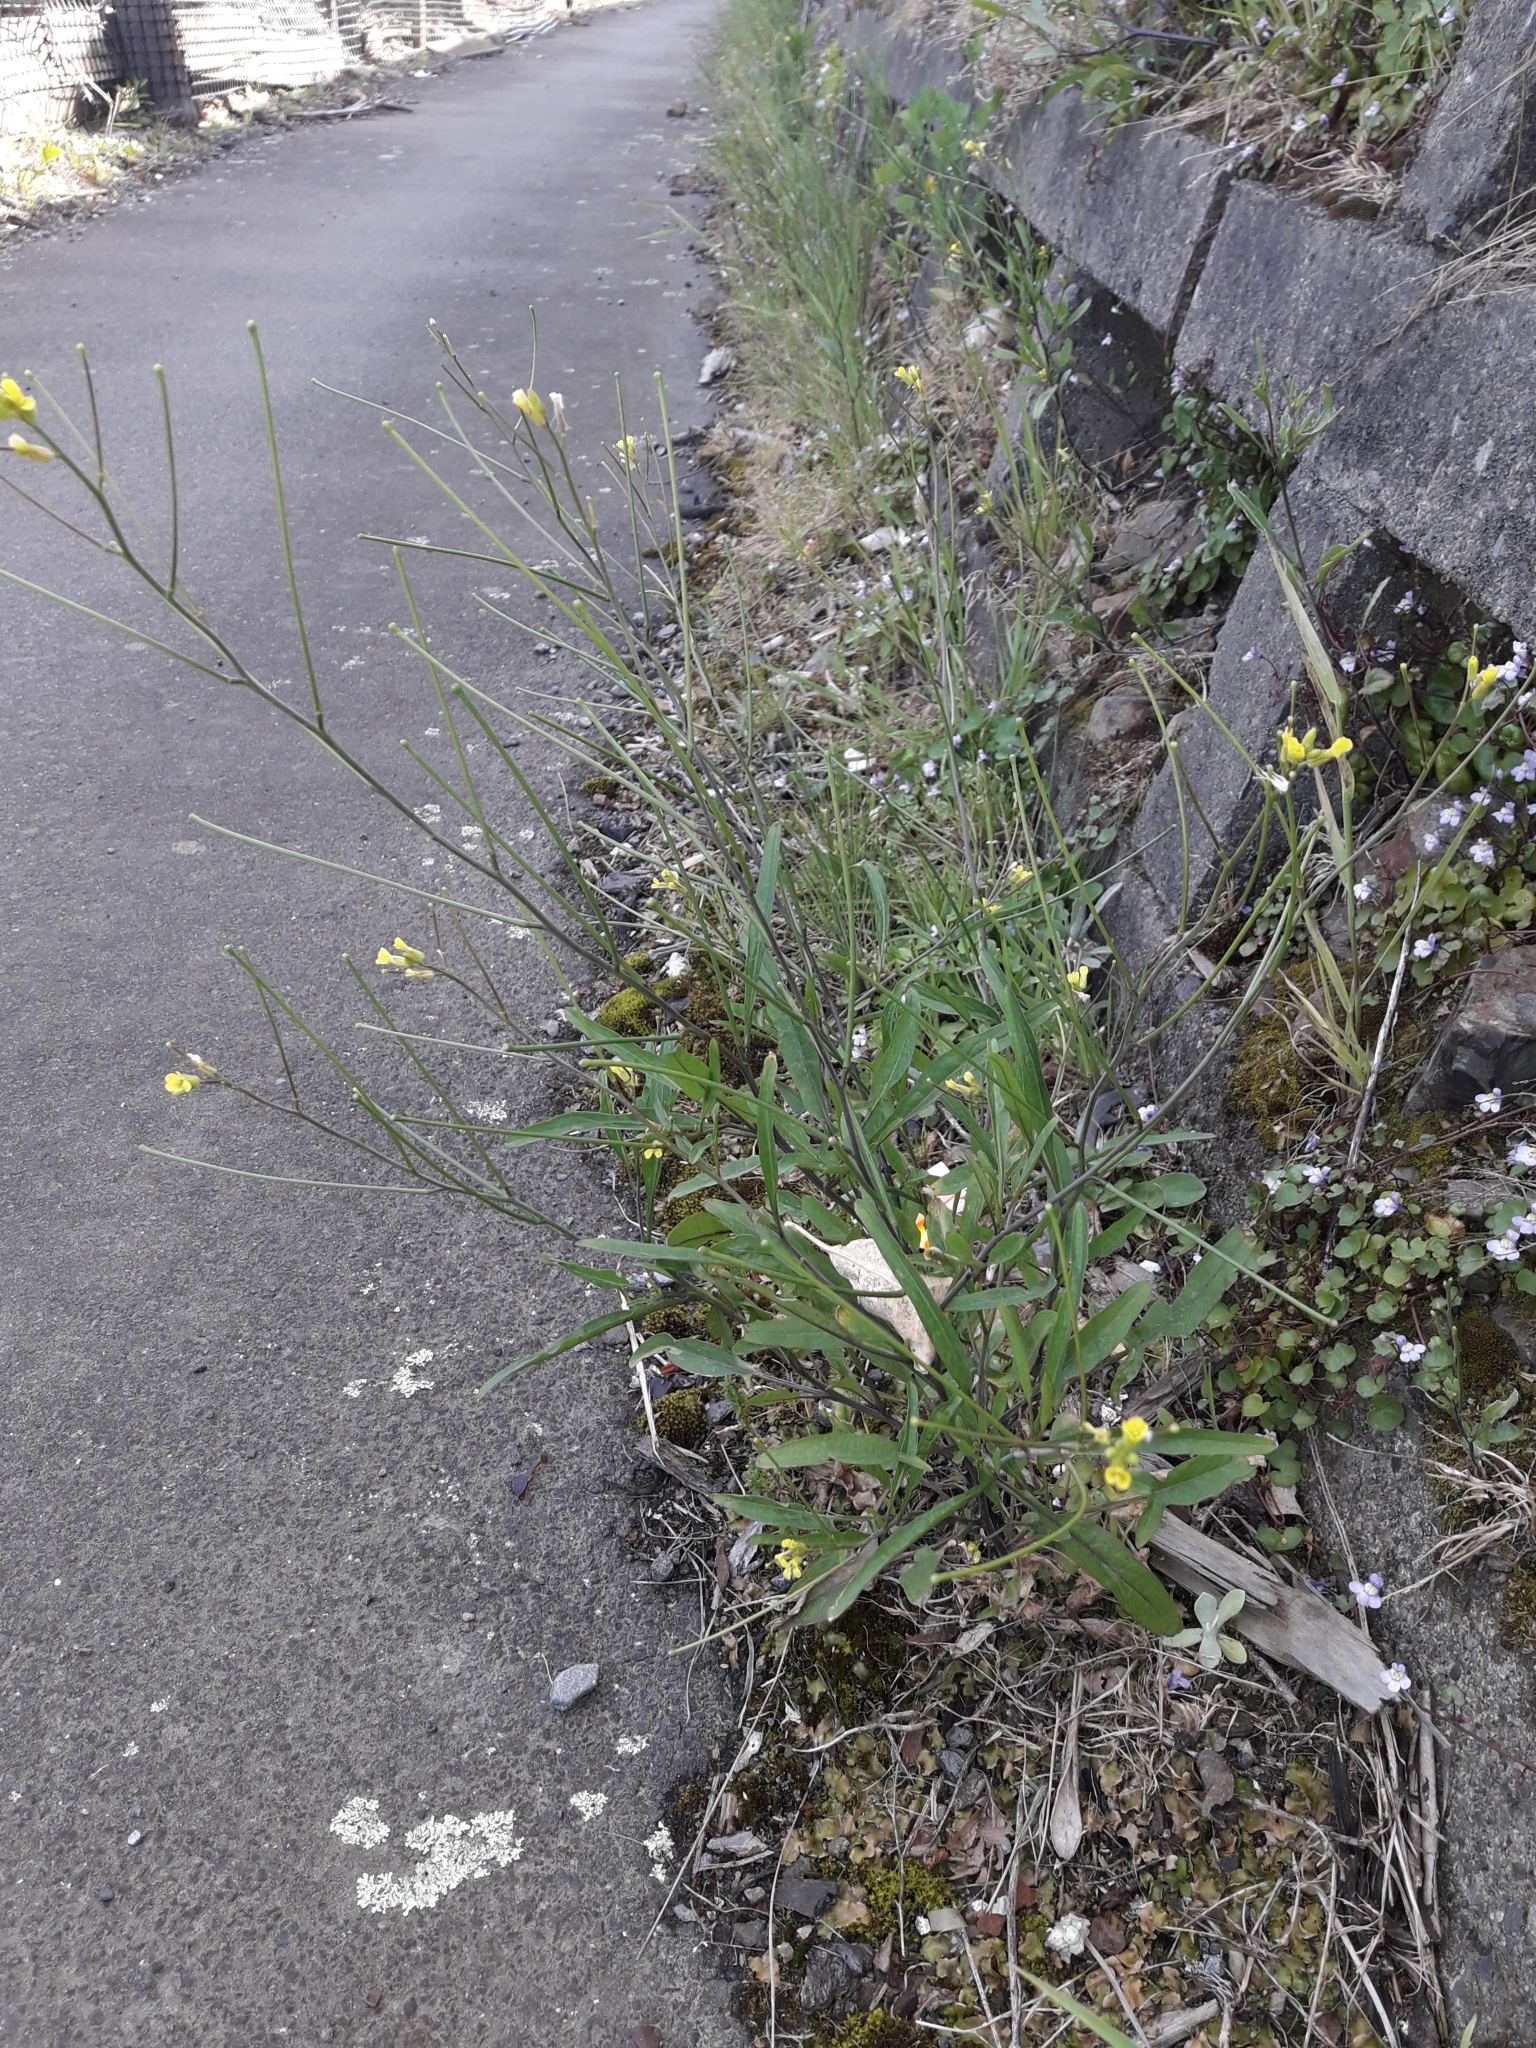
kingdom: Plantae
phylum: Tracheophyta
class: Magnoliopsida
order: Brassicales
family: Brassicaceae
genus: Sisymbrium
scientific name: Sisymbrium orientale
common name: Eastern rocket
